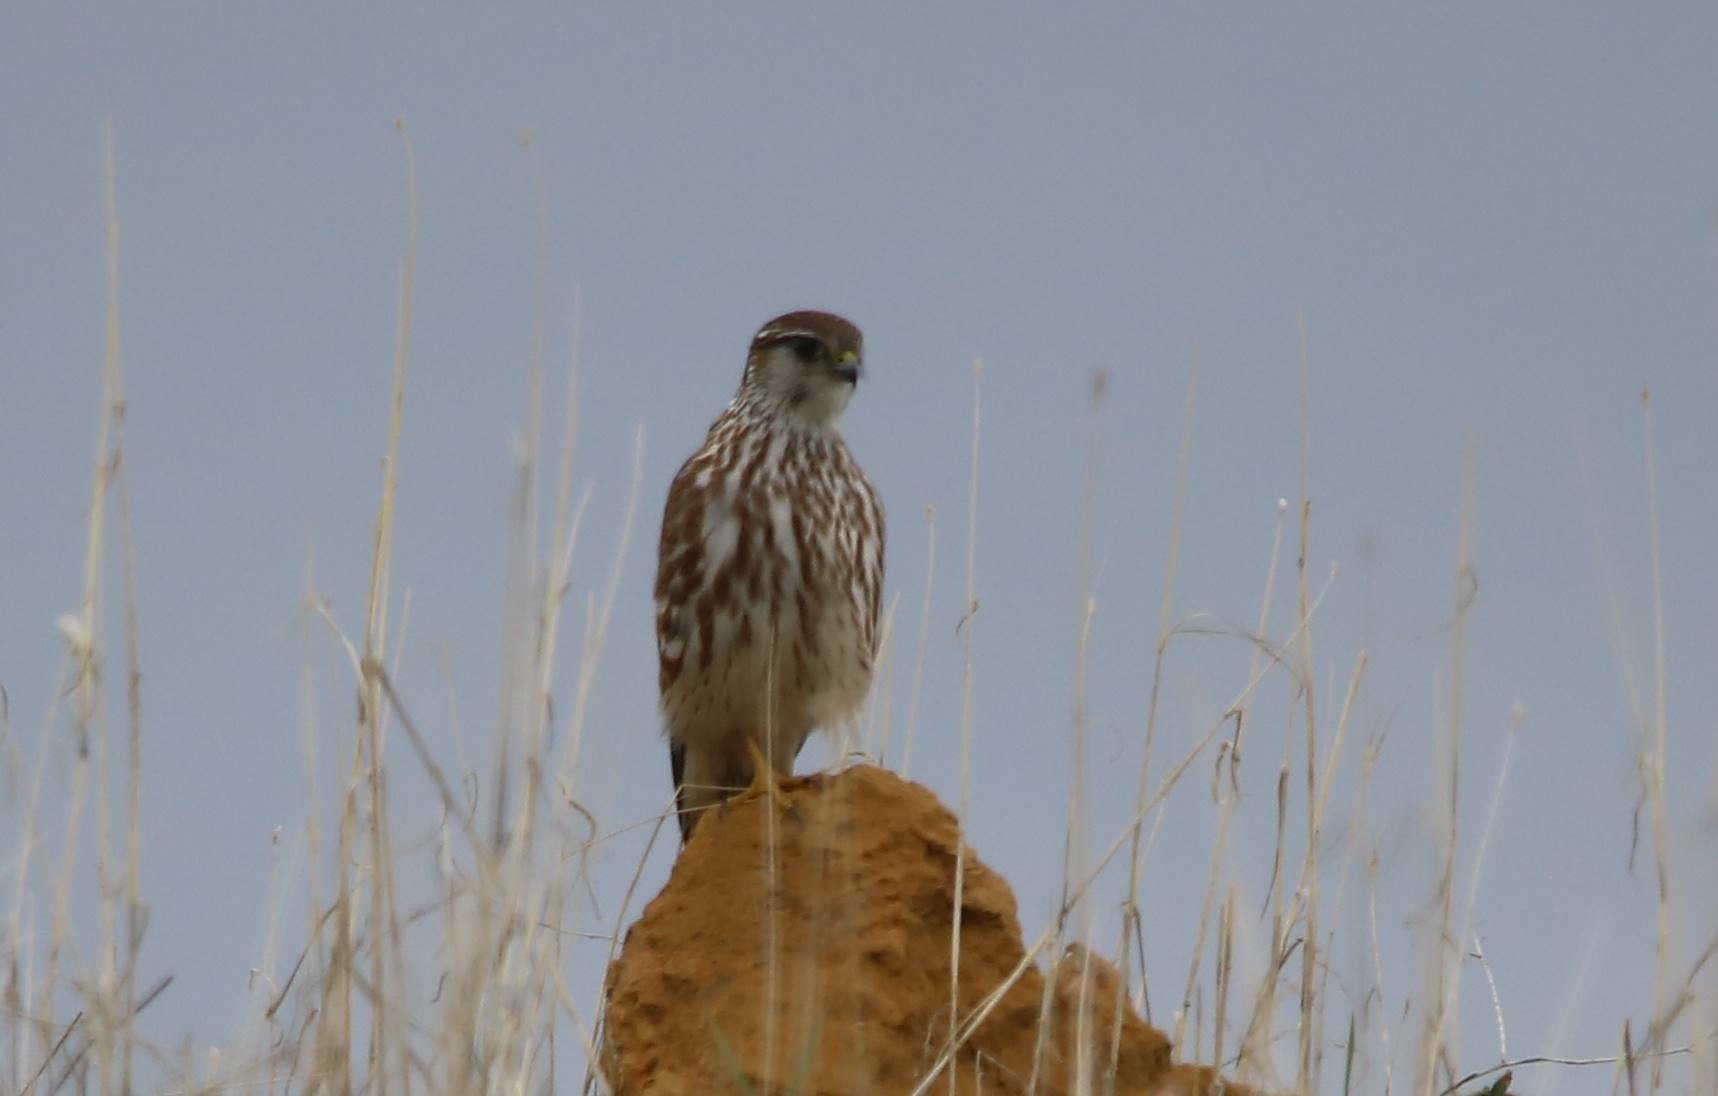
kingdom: Animalia
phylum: Chordata
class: Aves
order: Falconiformes
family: Falconidae
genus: Falco
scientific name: Falco columbarius
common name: Merlin
